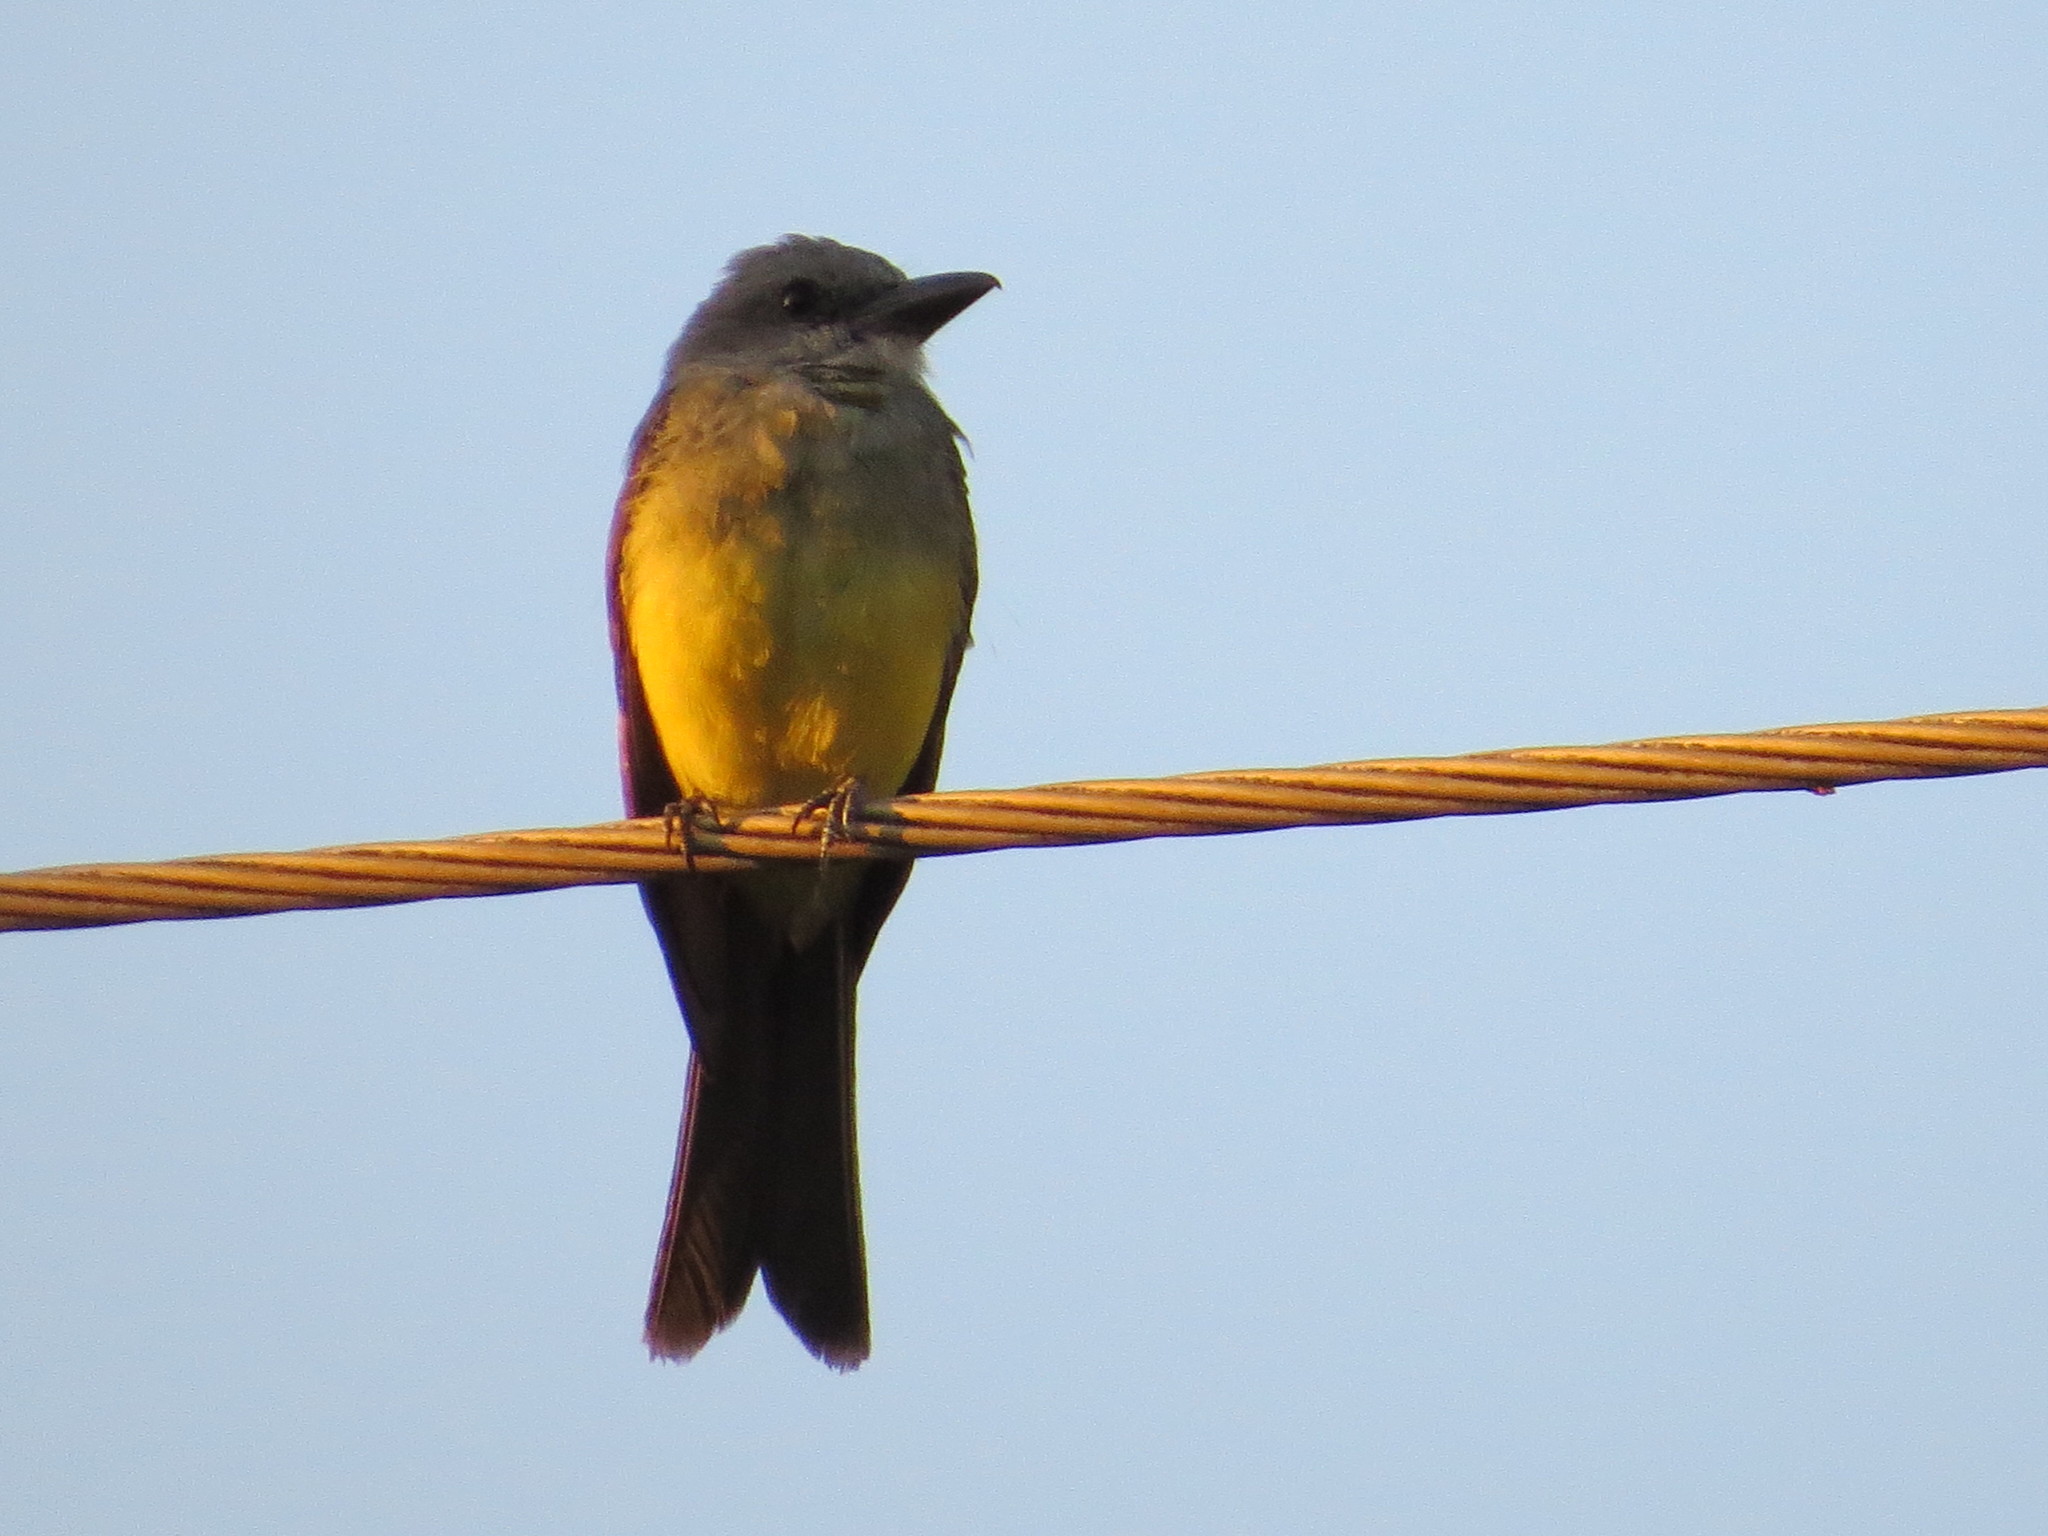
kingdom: Animalia
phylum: Chordata
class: Aves
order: Passeriformes
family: Tyrannidae
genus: Tyrannus
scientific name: Tyrannus melancholicus
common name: Tropical kingbird
